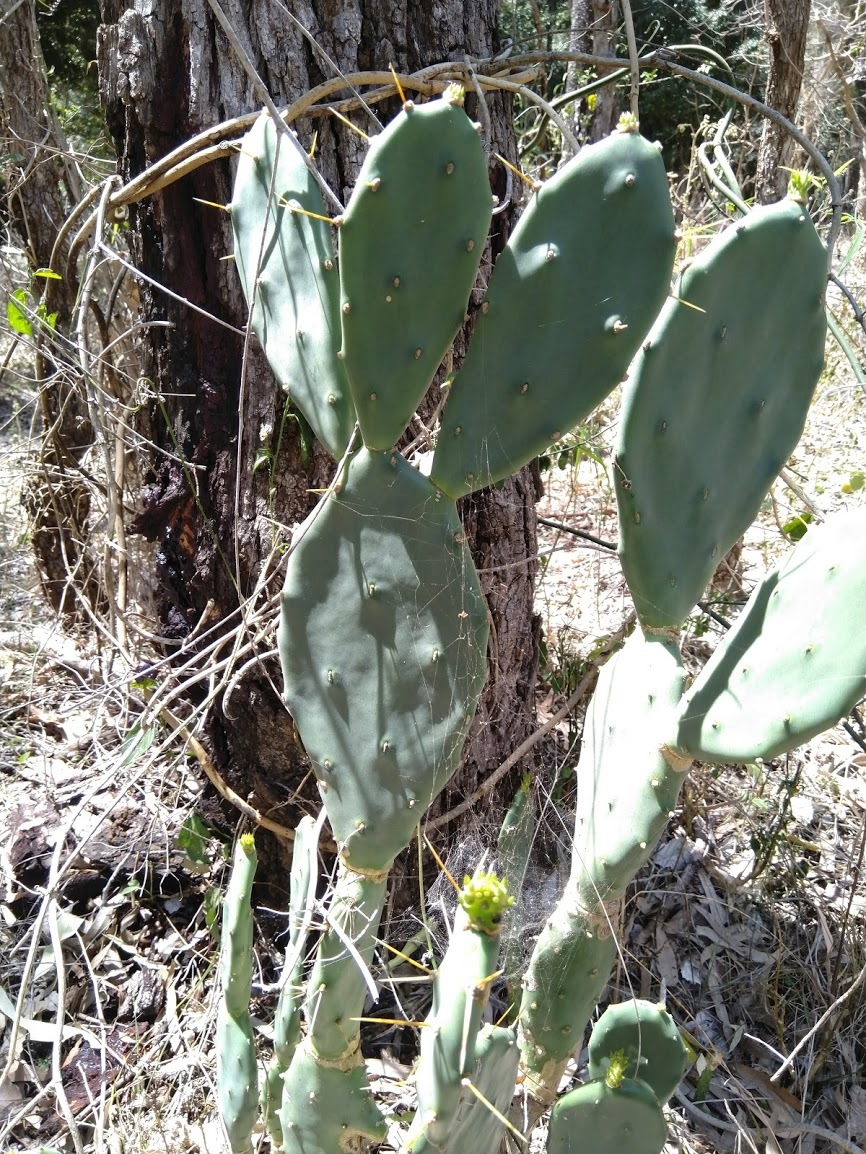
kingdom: Plantae
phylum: Tracheophyta
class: Magnoliopsida
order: Caryophyllales
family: Cactaceae
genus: Opuntia
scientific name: Opuntia stricta
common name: Erect pricklypear
